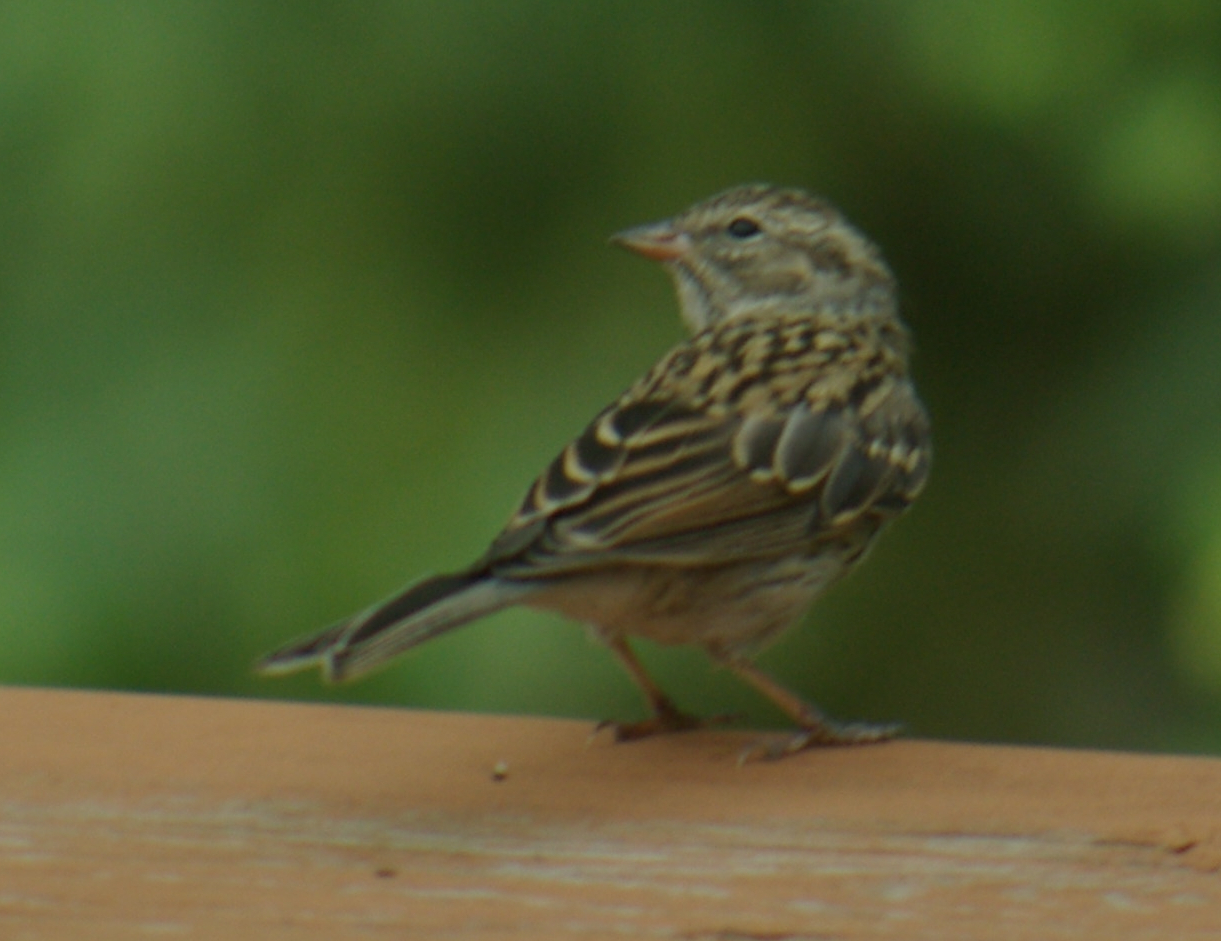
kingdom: Animalia
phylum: Chordata
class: Aves
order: Passeriformes
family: Passerellidae
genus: Spizella
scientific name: Spizella passerina
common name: Chipping sparrow
